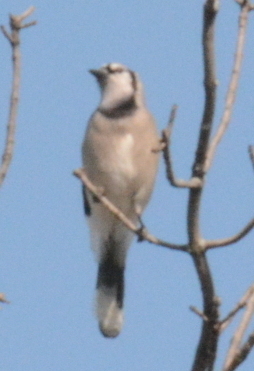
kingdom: Animalia
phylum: Chordata
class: Aves
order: Passeriformes
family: Corvidae
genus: Cyanocitta
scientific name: Cyanocitta cristata
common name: Blue jay
